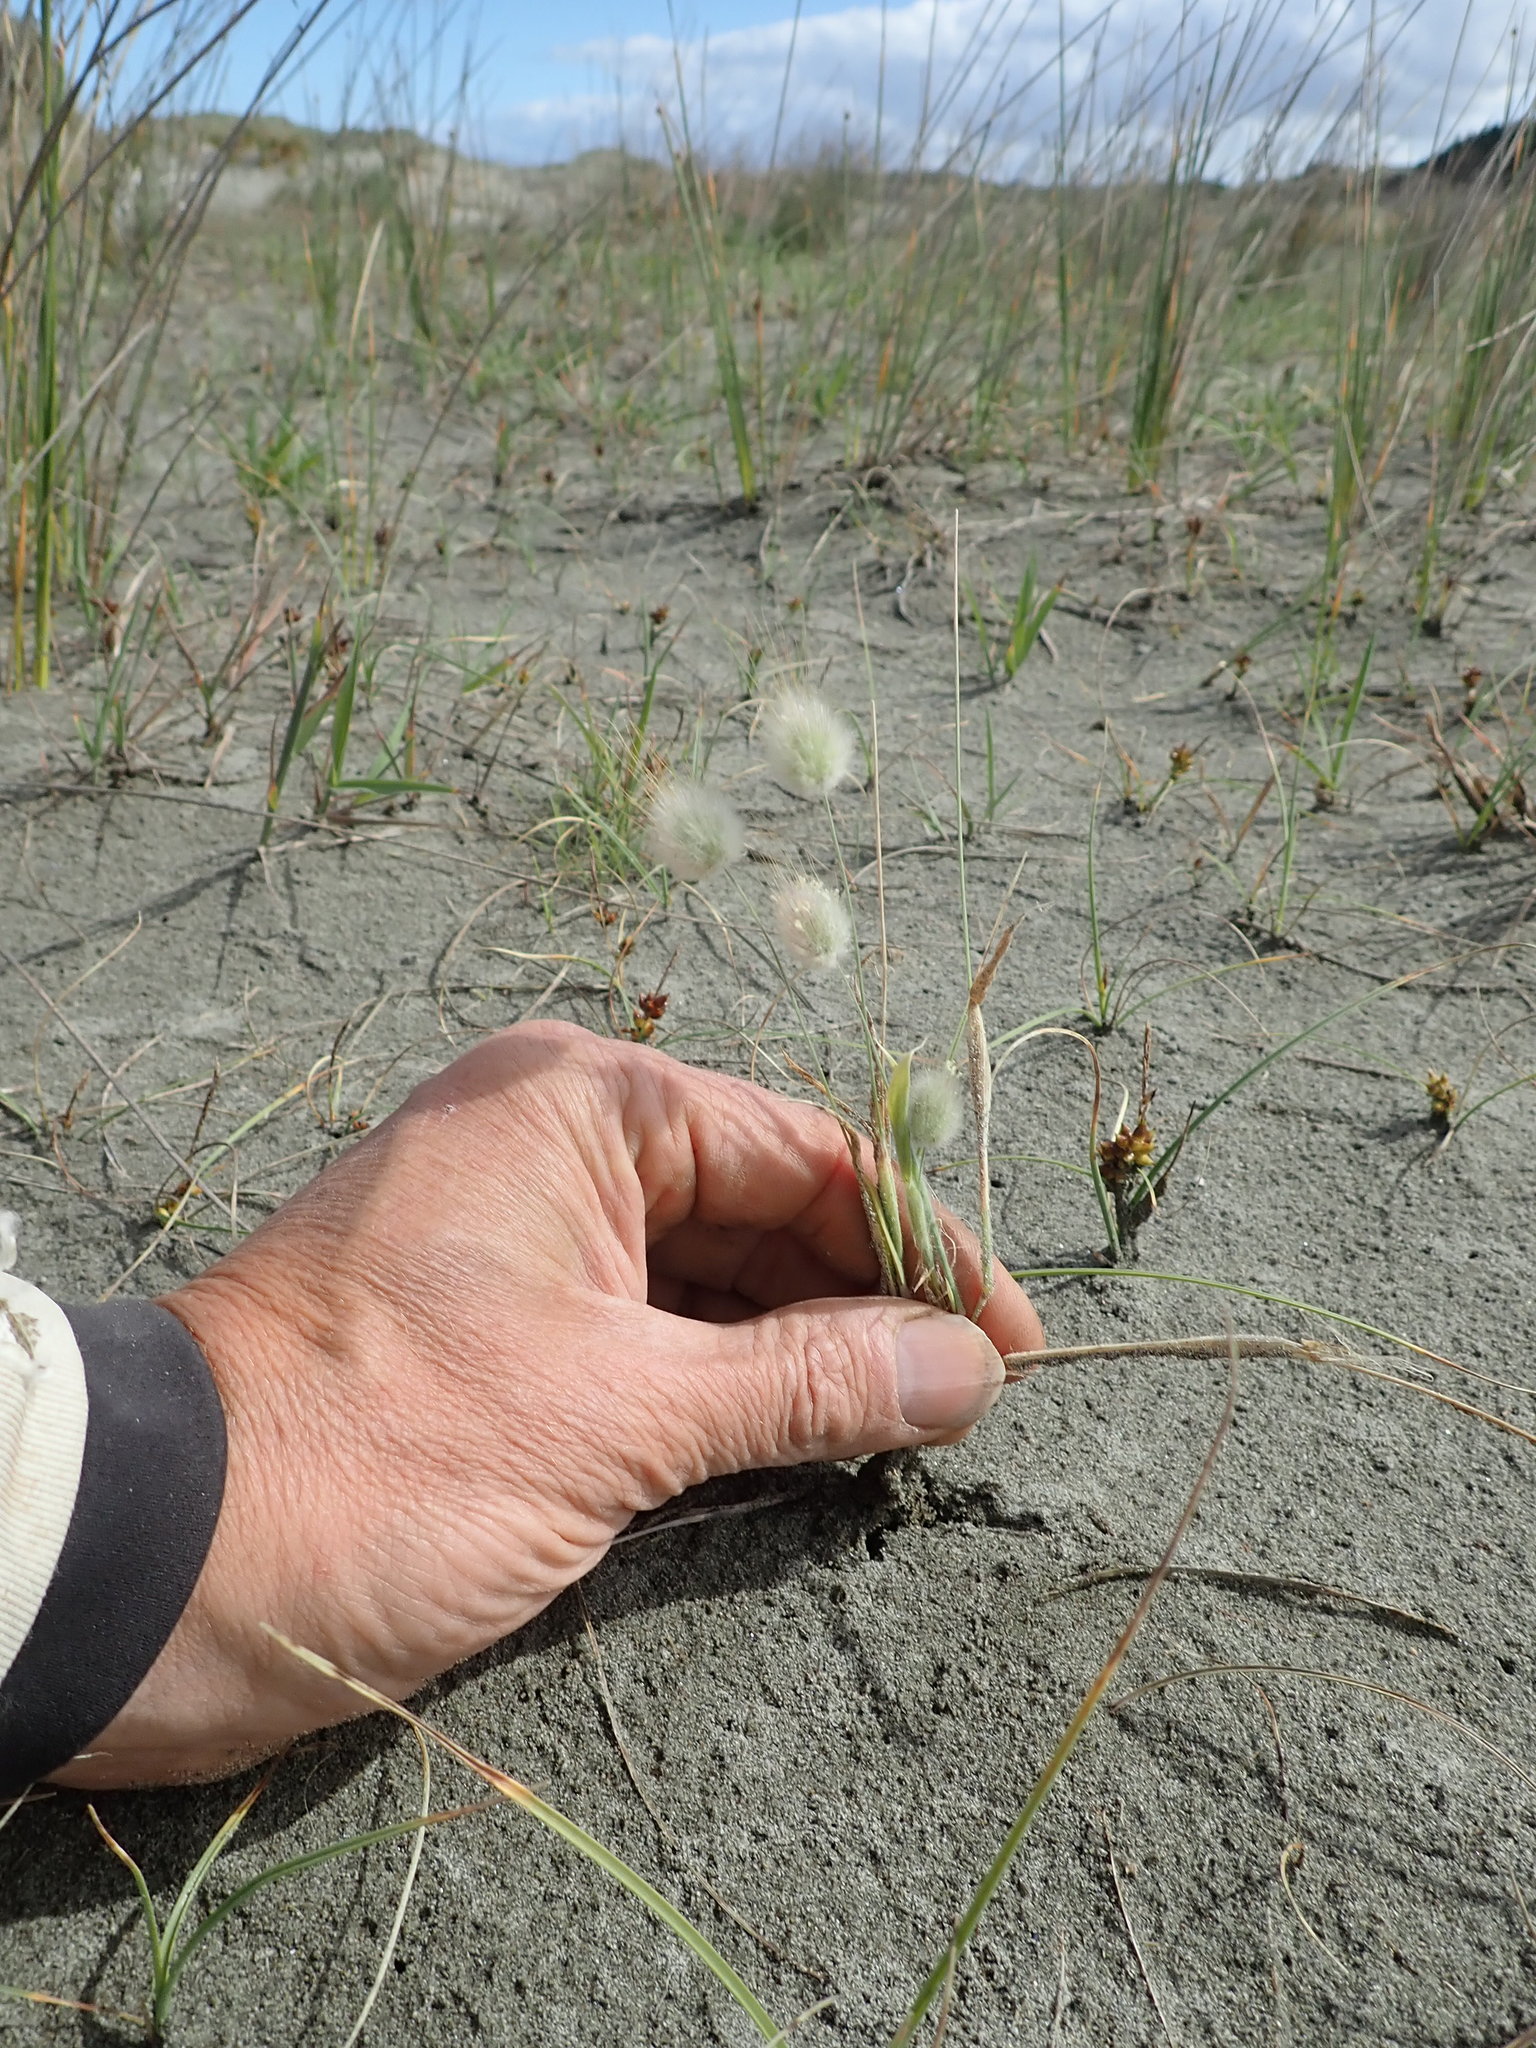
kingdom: Plantae
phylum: Tracheophyta
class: Liliopsida
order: Poales
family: Poaceae
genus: Lagurus
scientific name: Lagurus ovatus
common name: Hare's-tail
